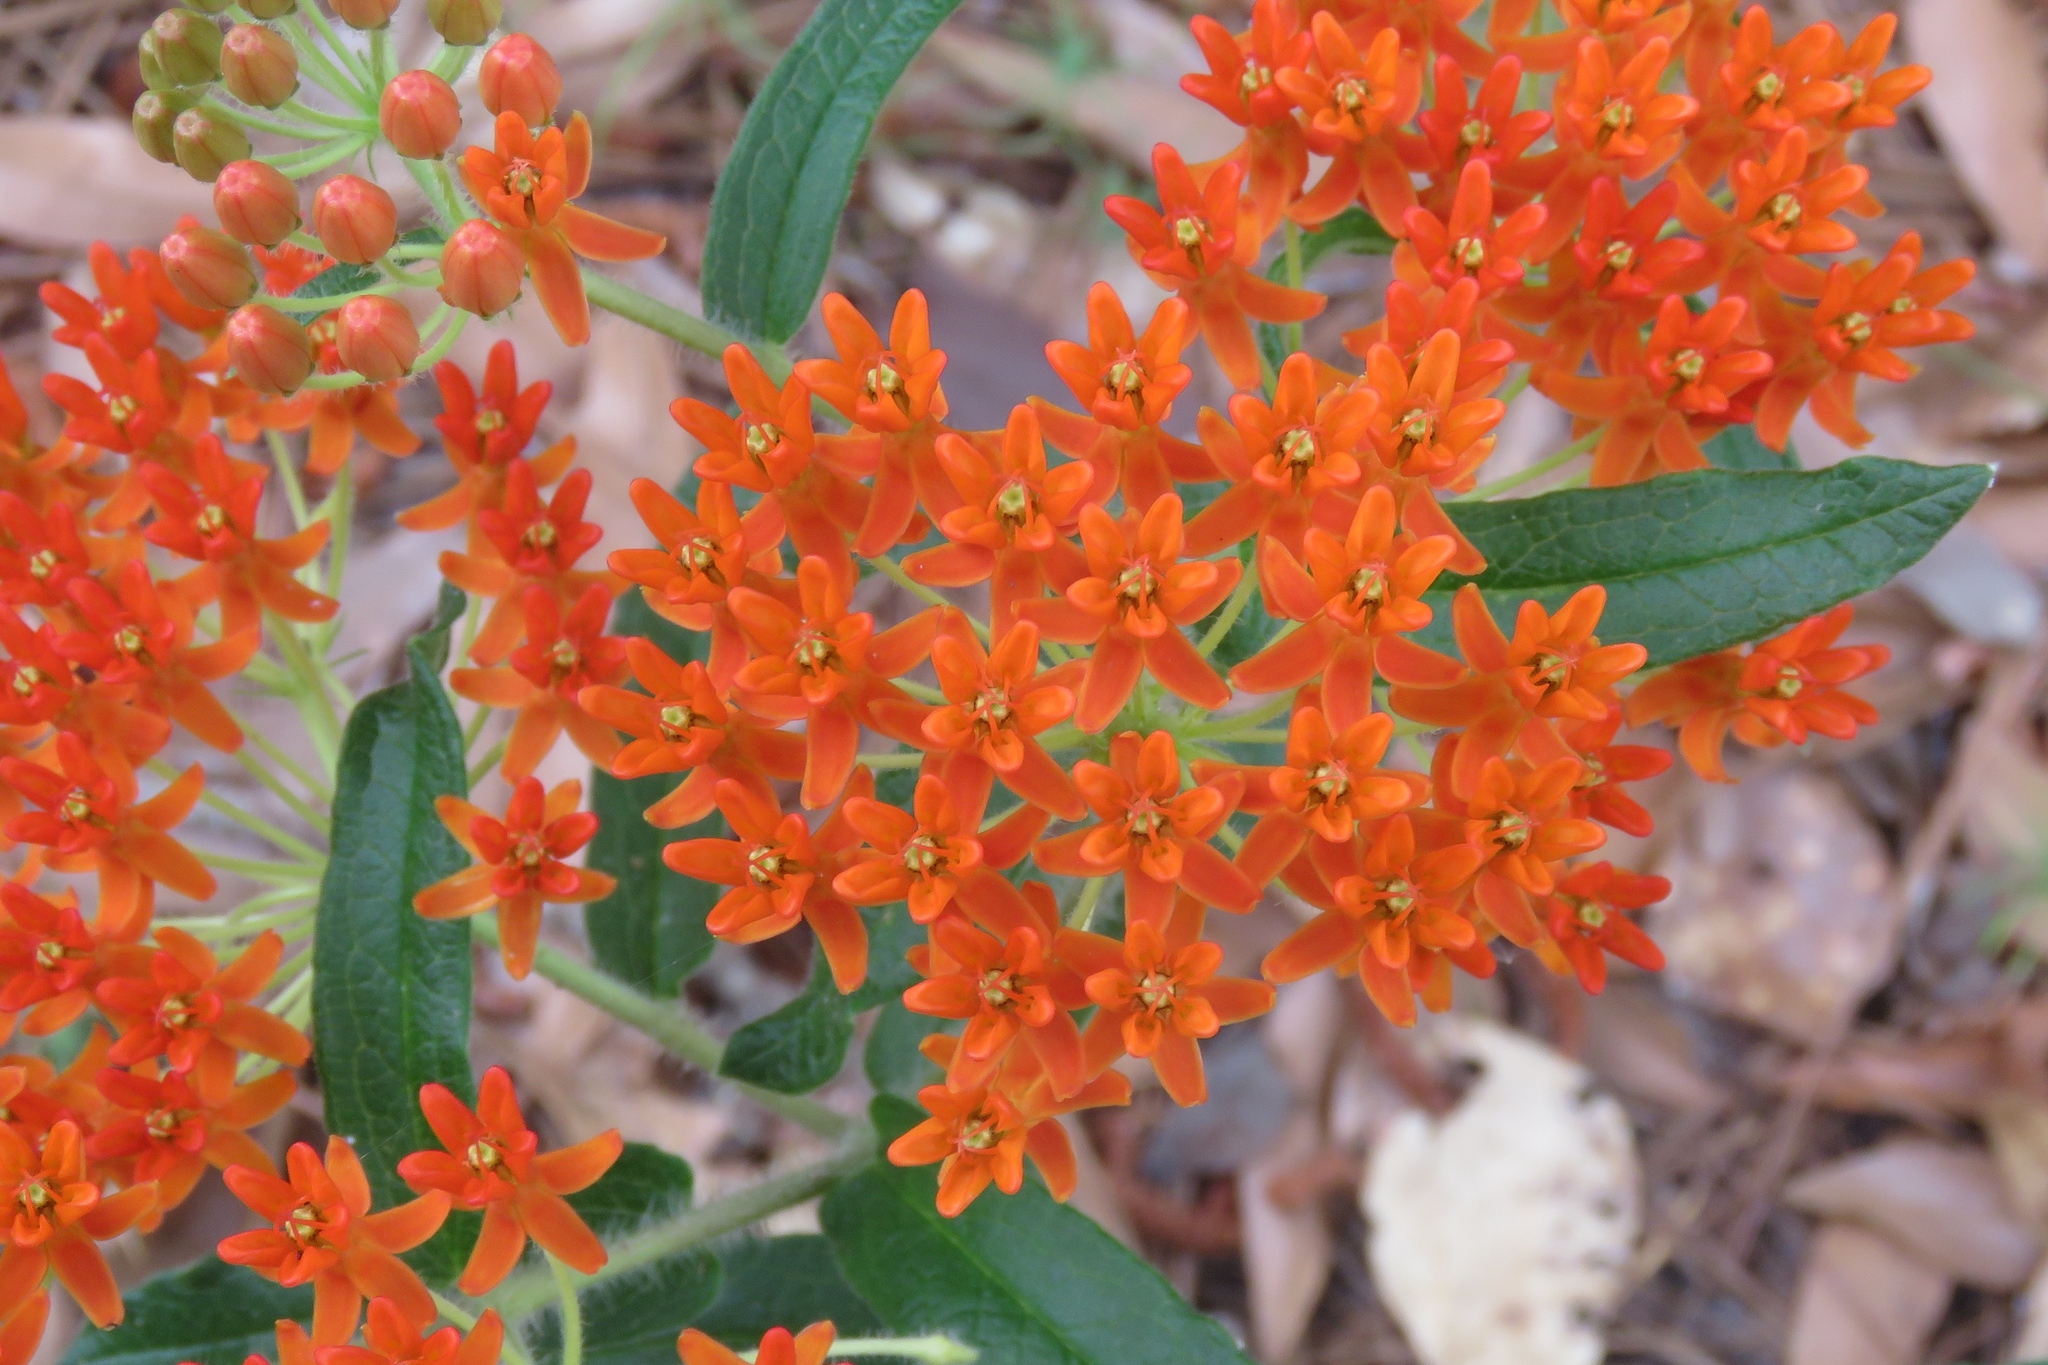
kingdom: Plantae
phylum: Tracheophyta
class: Magnoliopsida
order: Gentianales
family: Apocynaceae
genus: Asclepias
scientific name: Asclepias tuberosa
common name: Butterfly milkweed
